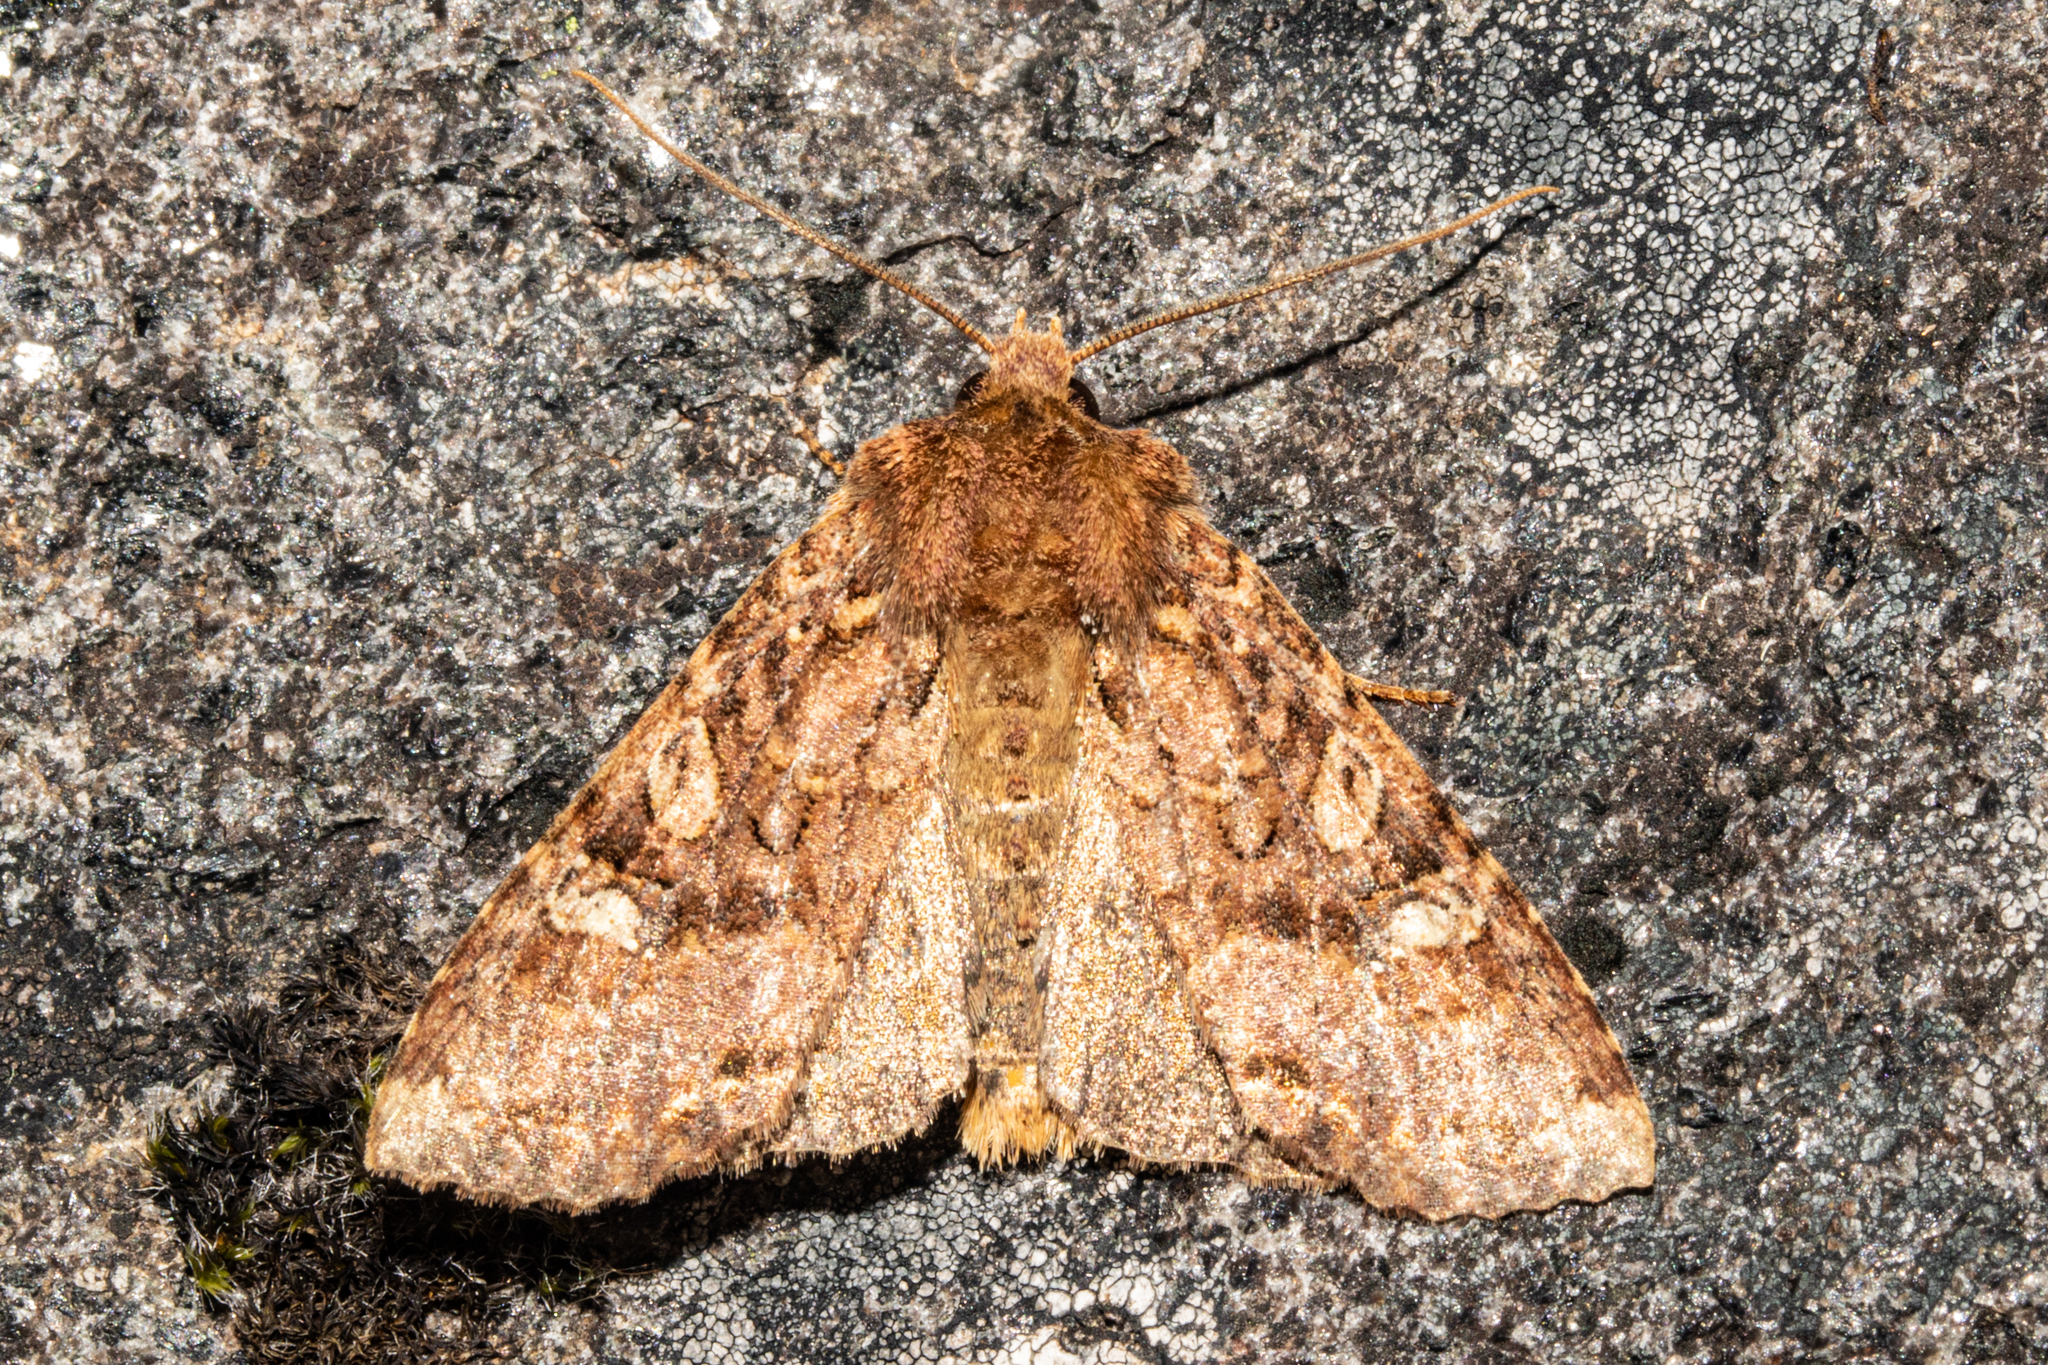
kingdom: Animalia
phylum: Arthropoda
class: Insecta
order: Lepidoptera
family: Noctuidae
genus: Meterana
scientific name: Meterana
